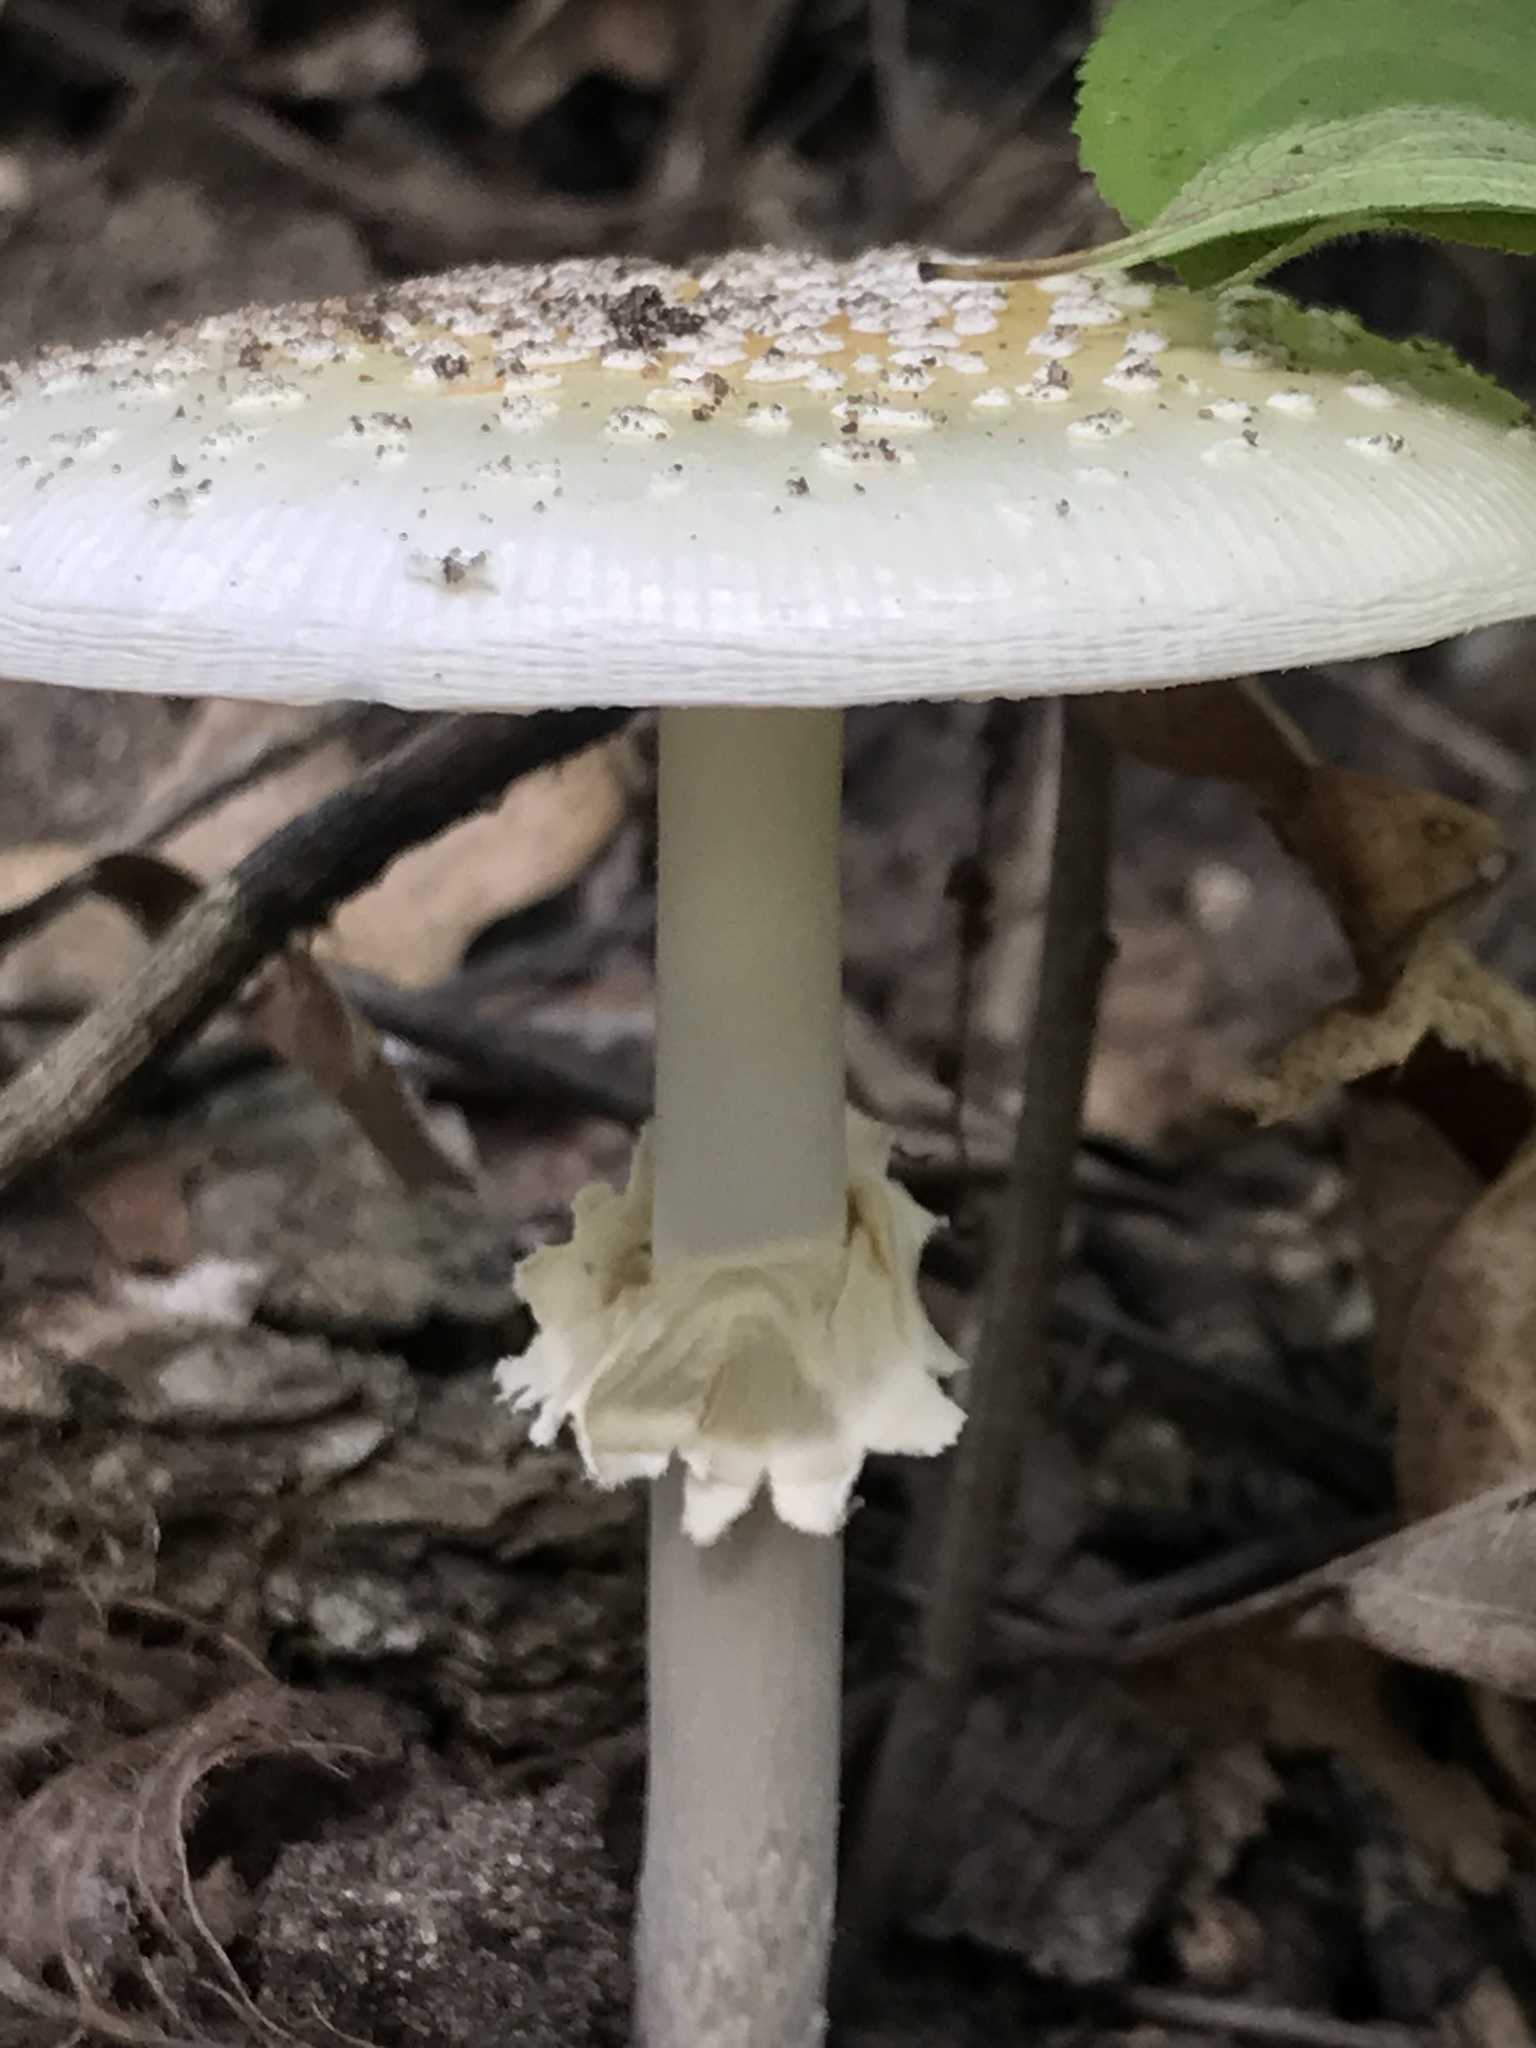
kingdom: Fungi
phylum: Basidiomycota
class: Agaricomycetes
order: Agaricales
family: Amanitaceae
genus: Amanita
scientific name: Amanita multisquamosa
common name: Small funnel-veil amanita
